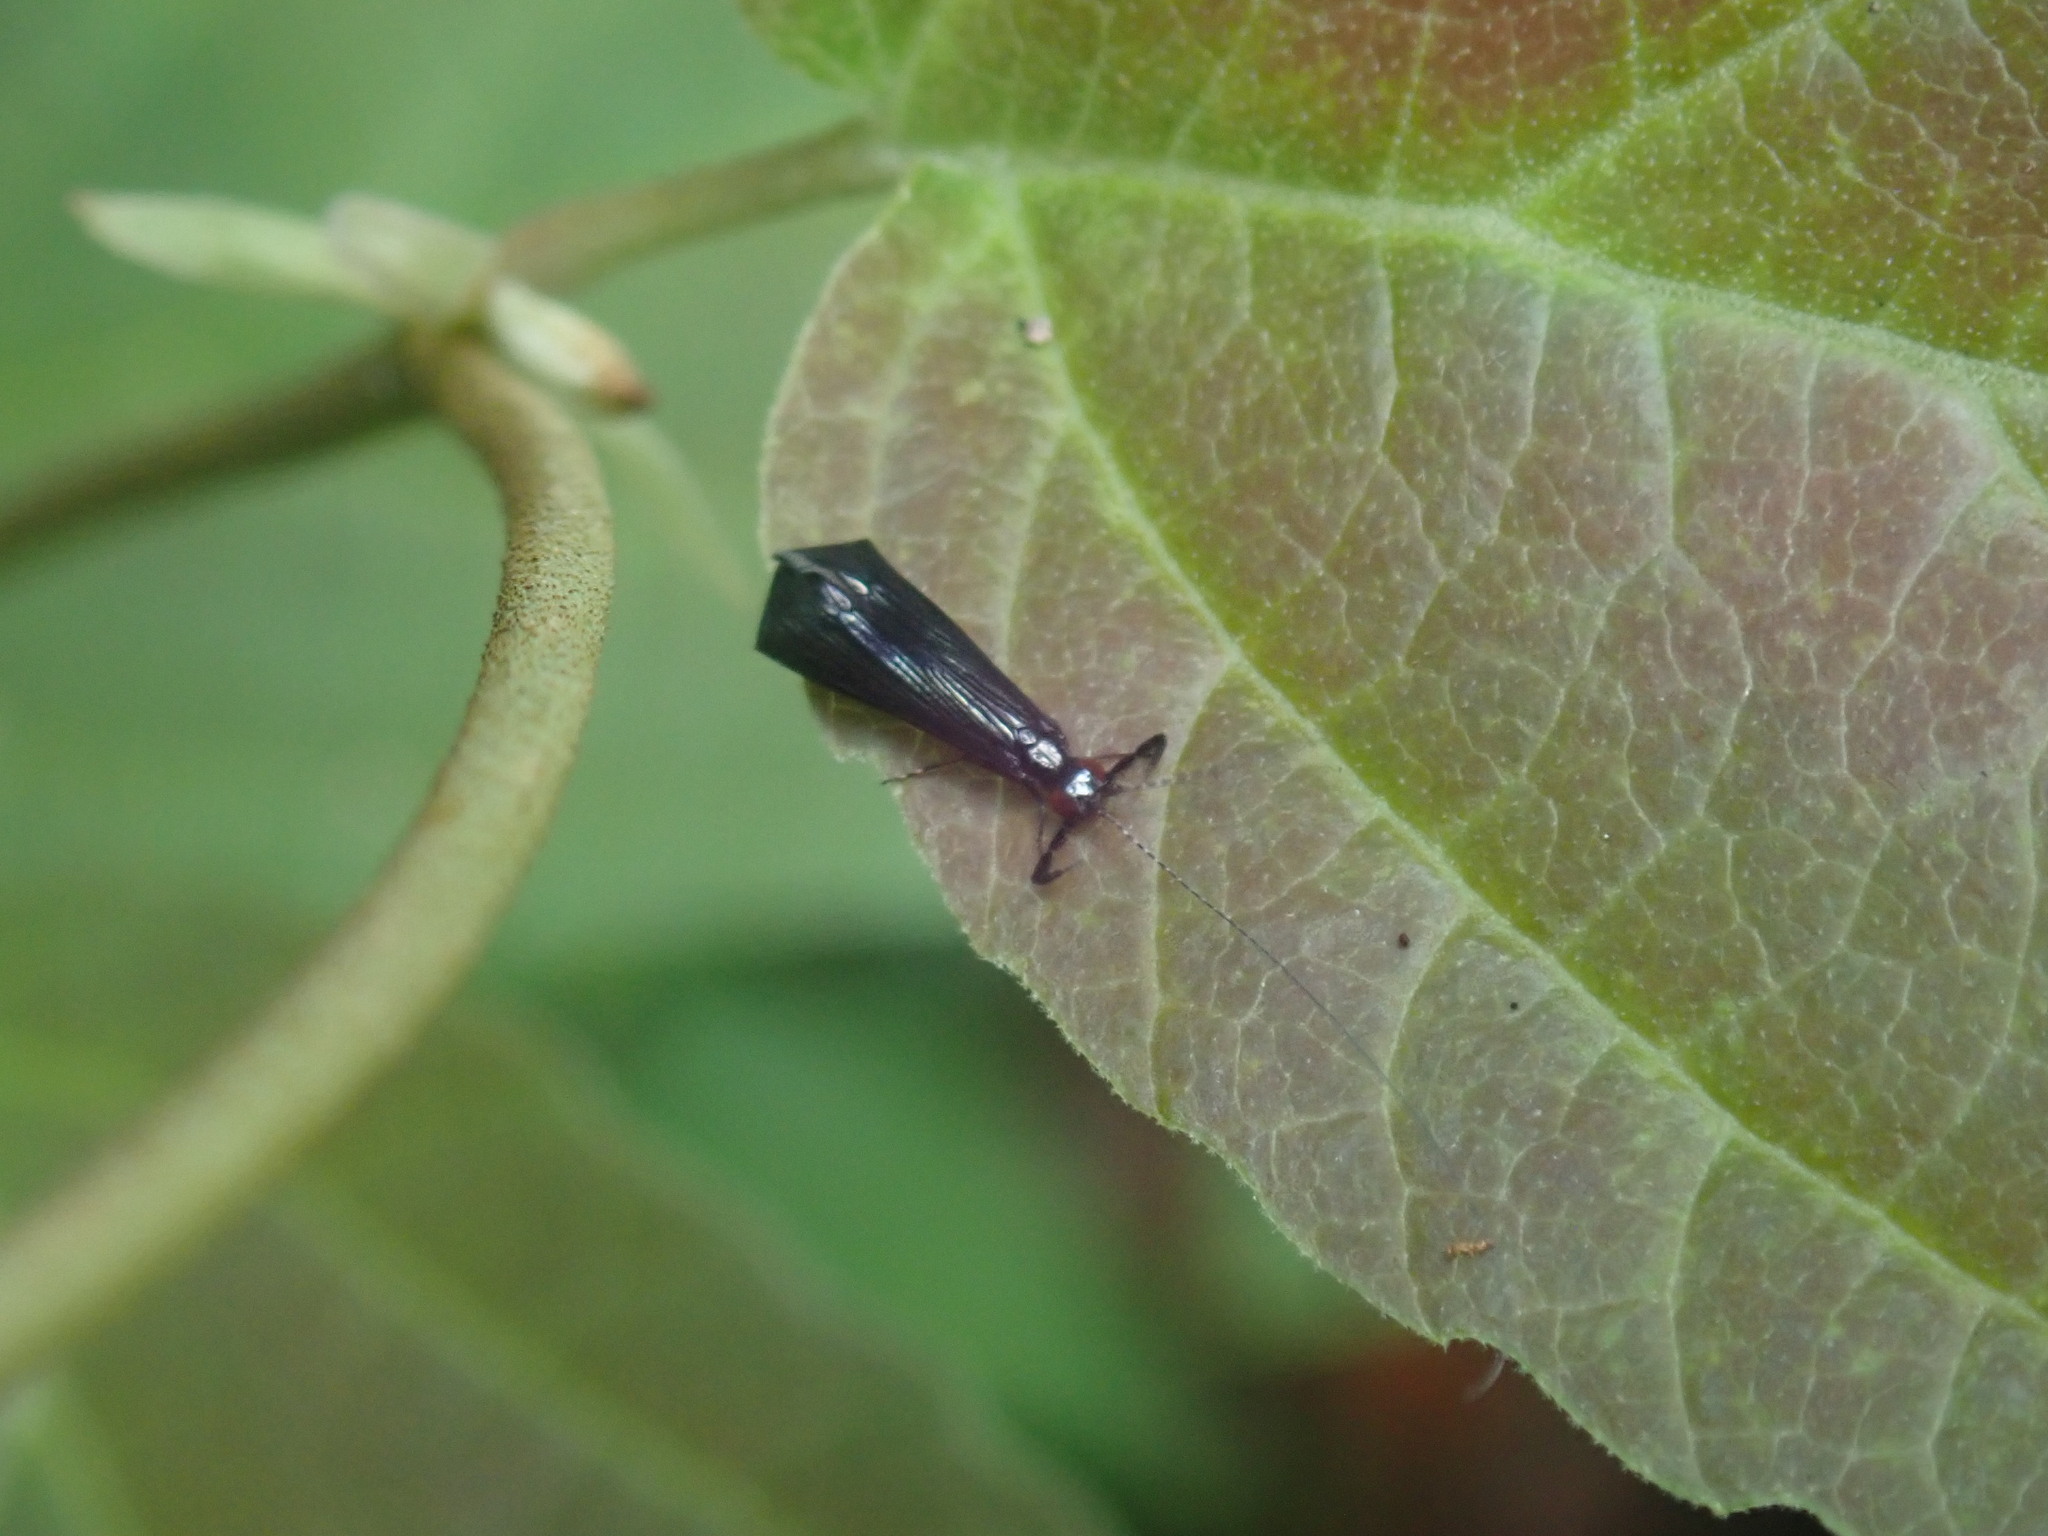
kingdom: Animalia
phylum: Arthropoda
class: Insecta
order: Trichoptera
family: Leptoceridae
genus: Mystacides
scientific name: Mystacides sepulchralis
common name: Black dancer caddisfly
